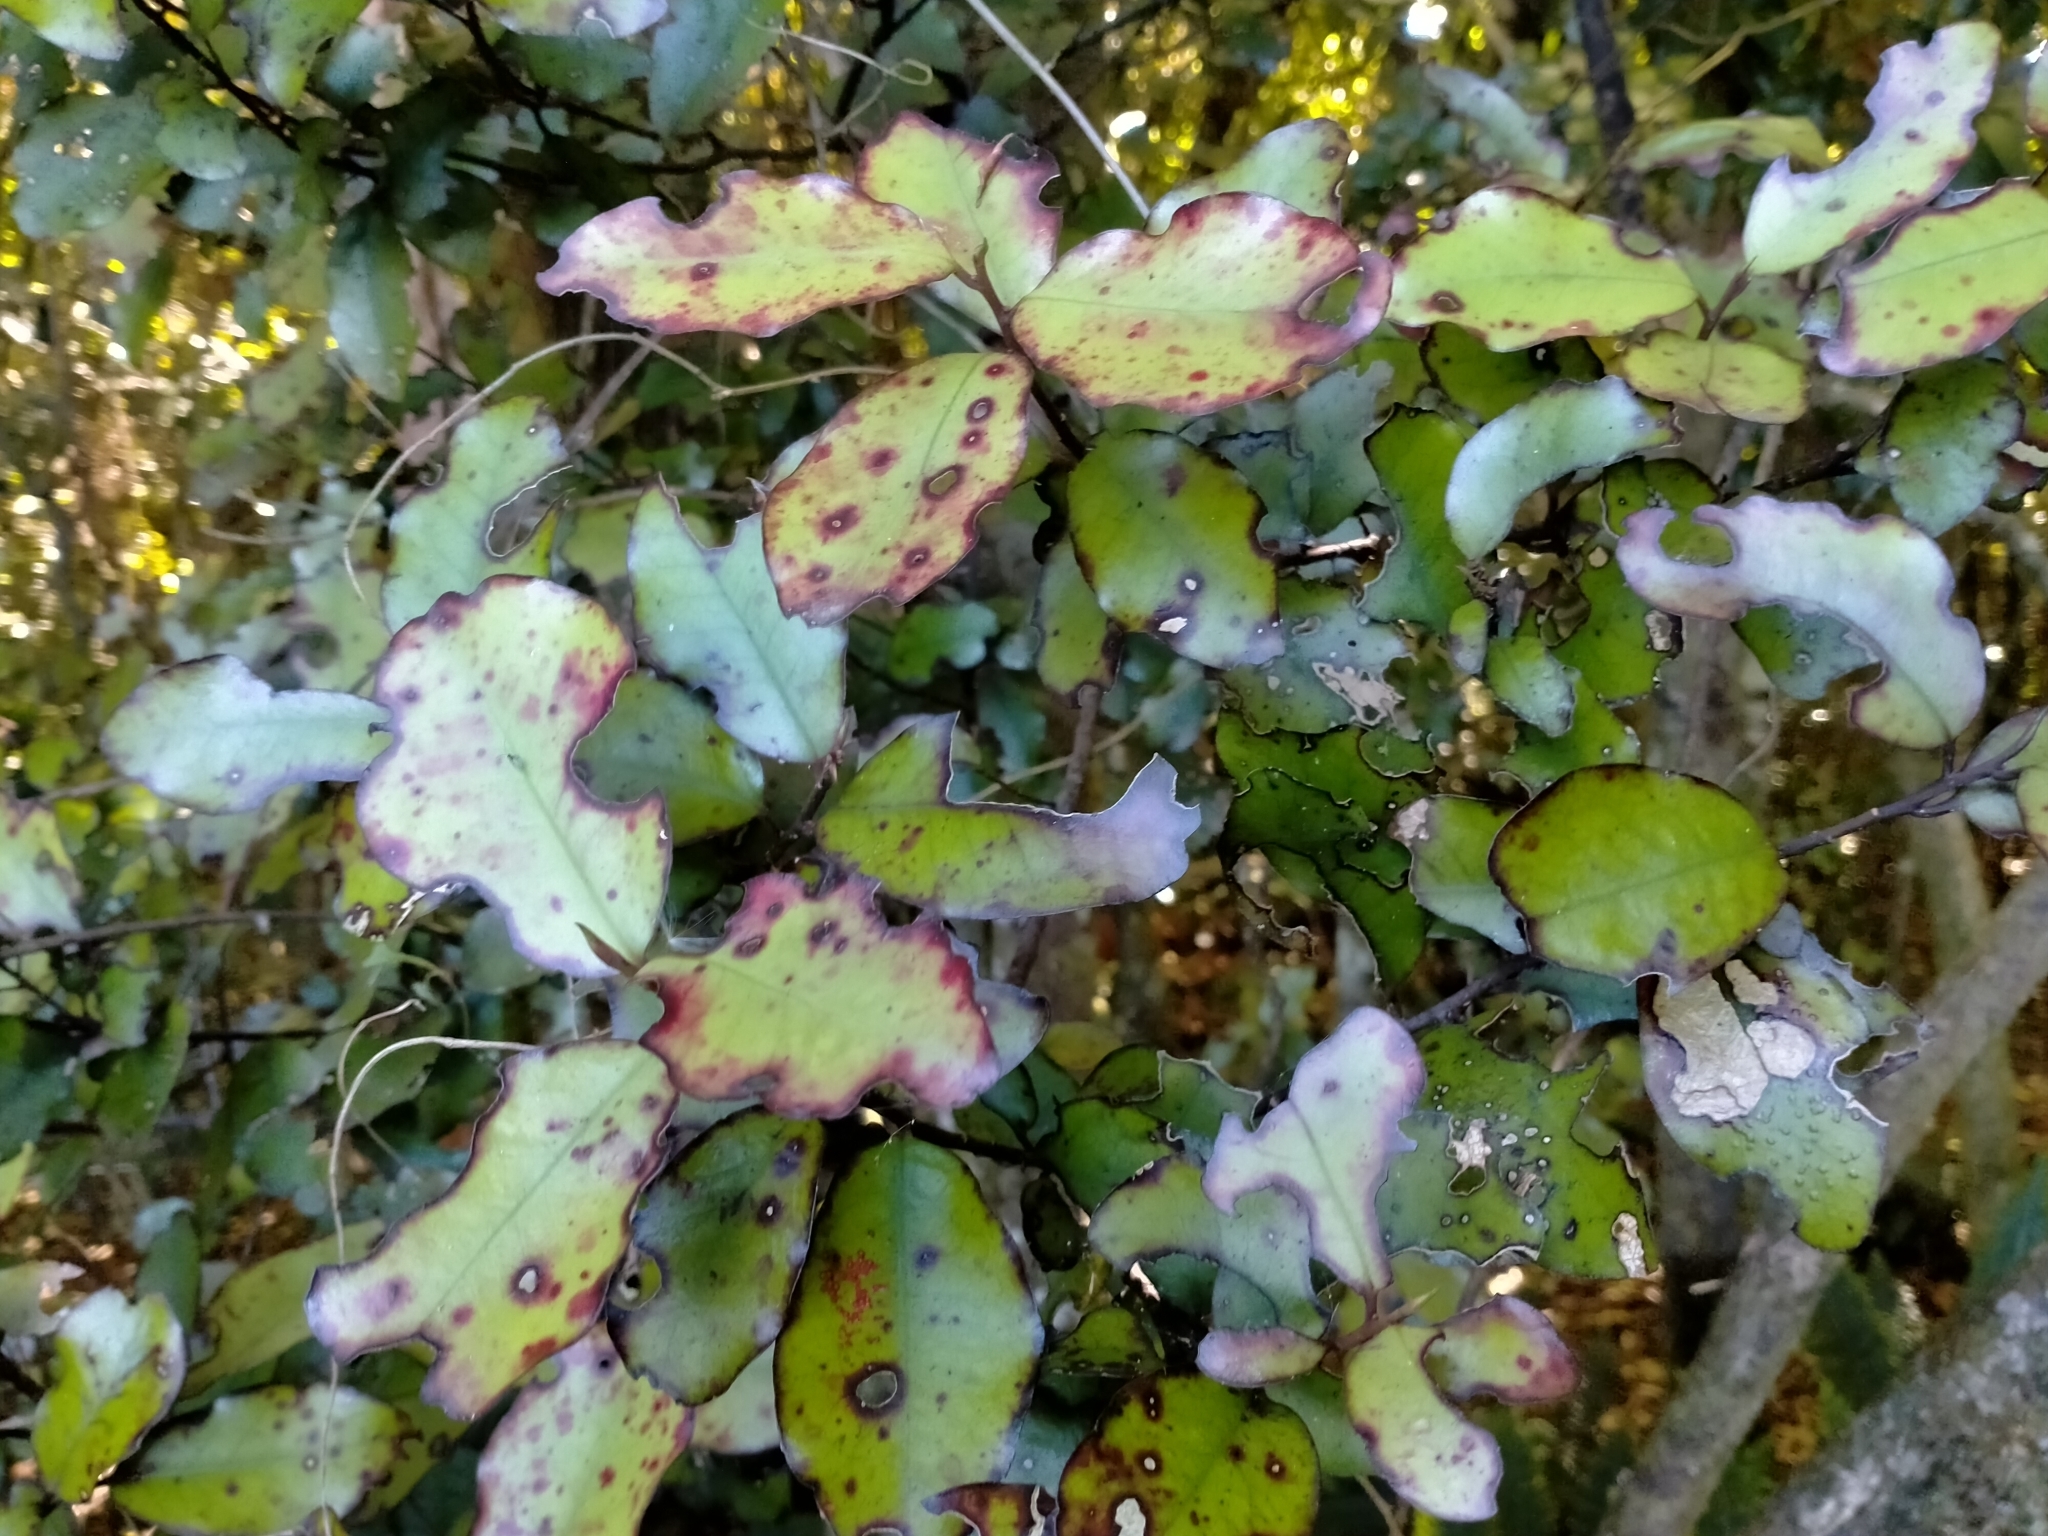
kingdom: Plantae
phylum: Tracheophyta
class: Magnoliopsida
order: Canellales
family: Winteraceae
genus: Pseudowintera
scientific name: Pseudowintera colorata
